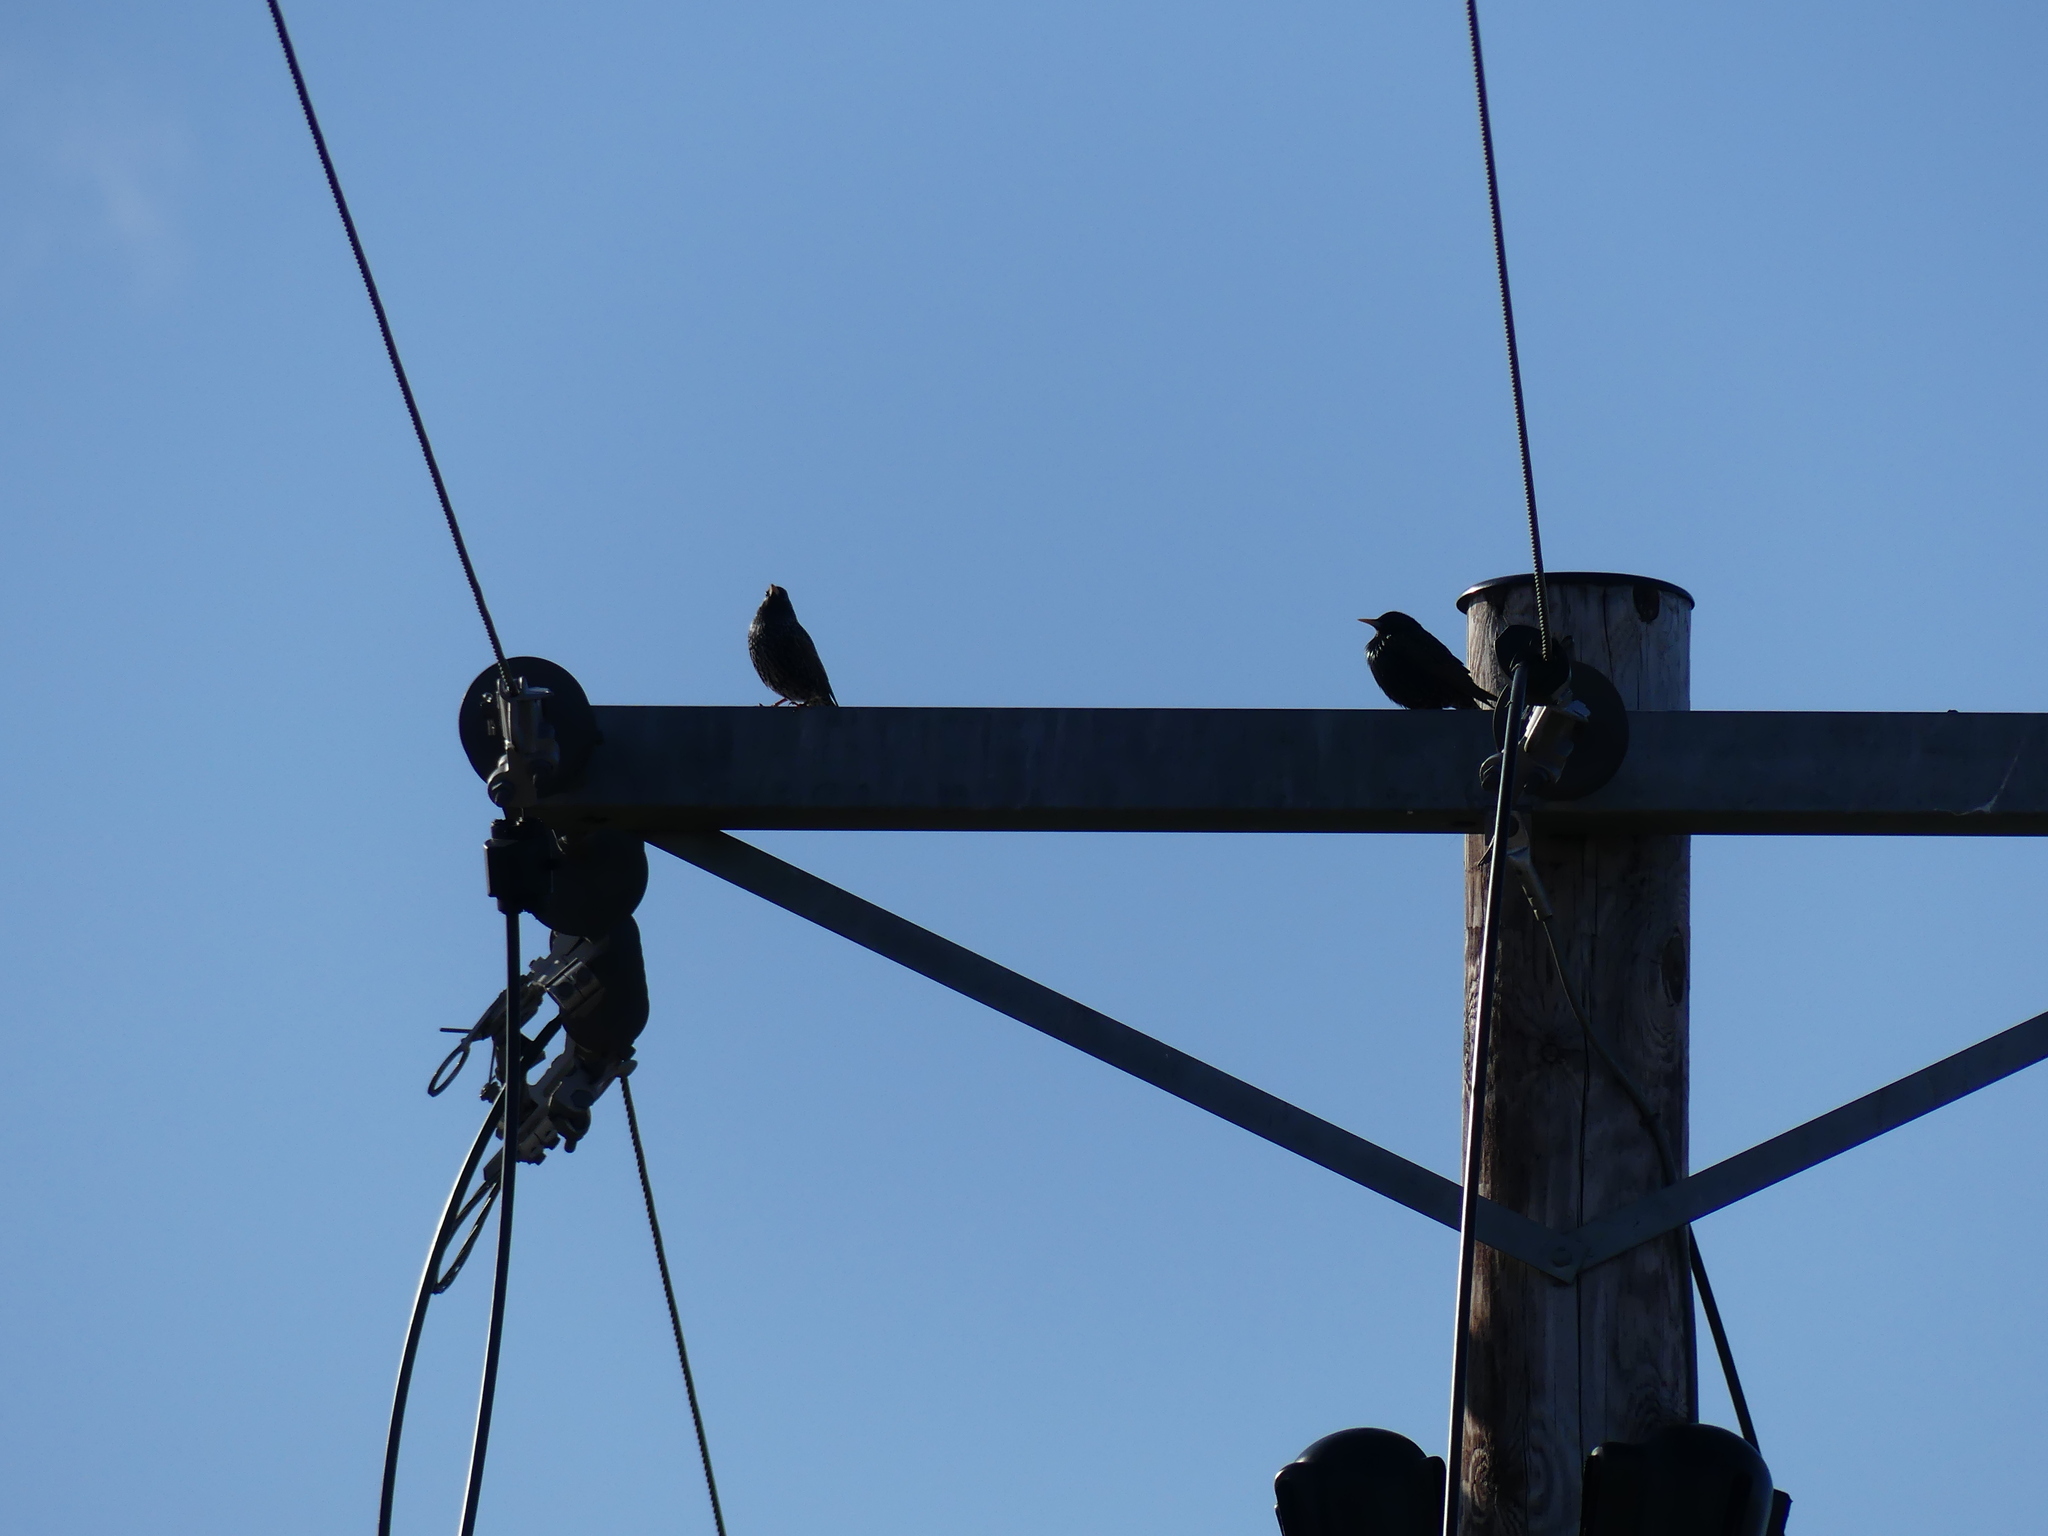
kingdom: Animalia
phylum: Chordata
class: Aves
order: Passeriformes
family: Sturnidae
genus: Sturnus
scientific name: Sturnus vulgaris
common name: Common starling
